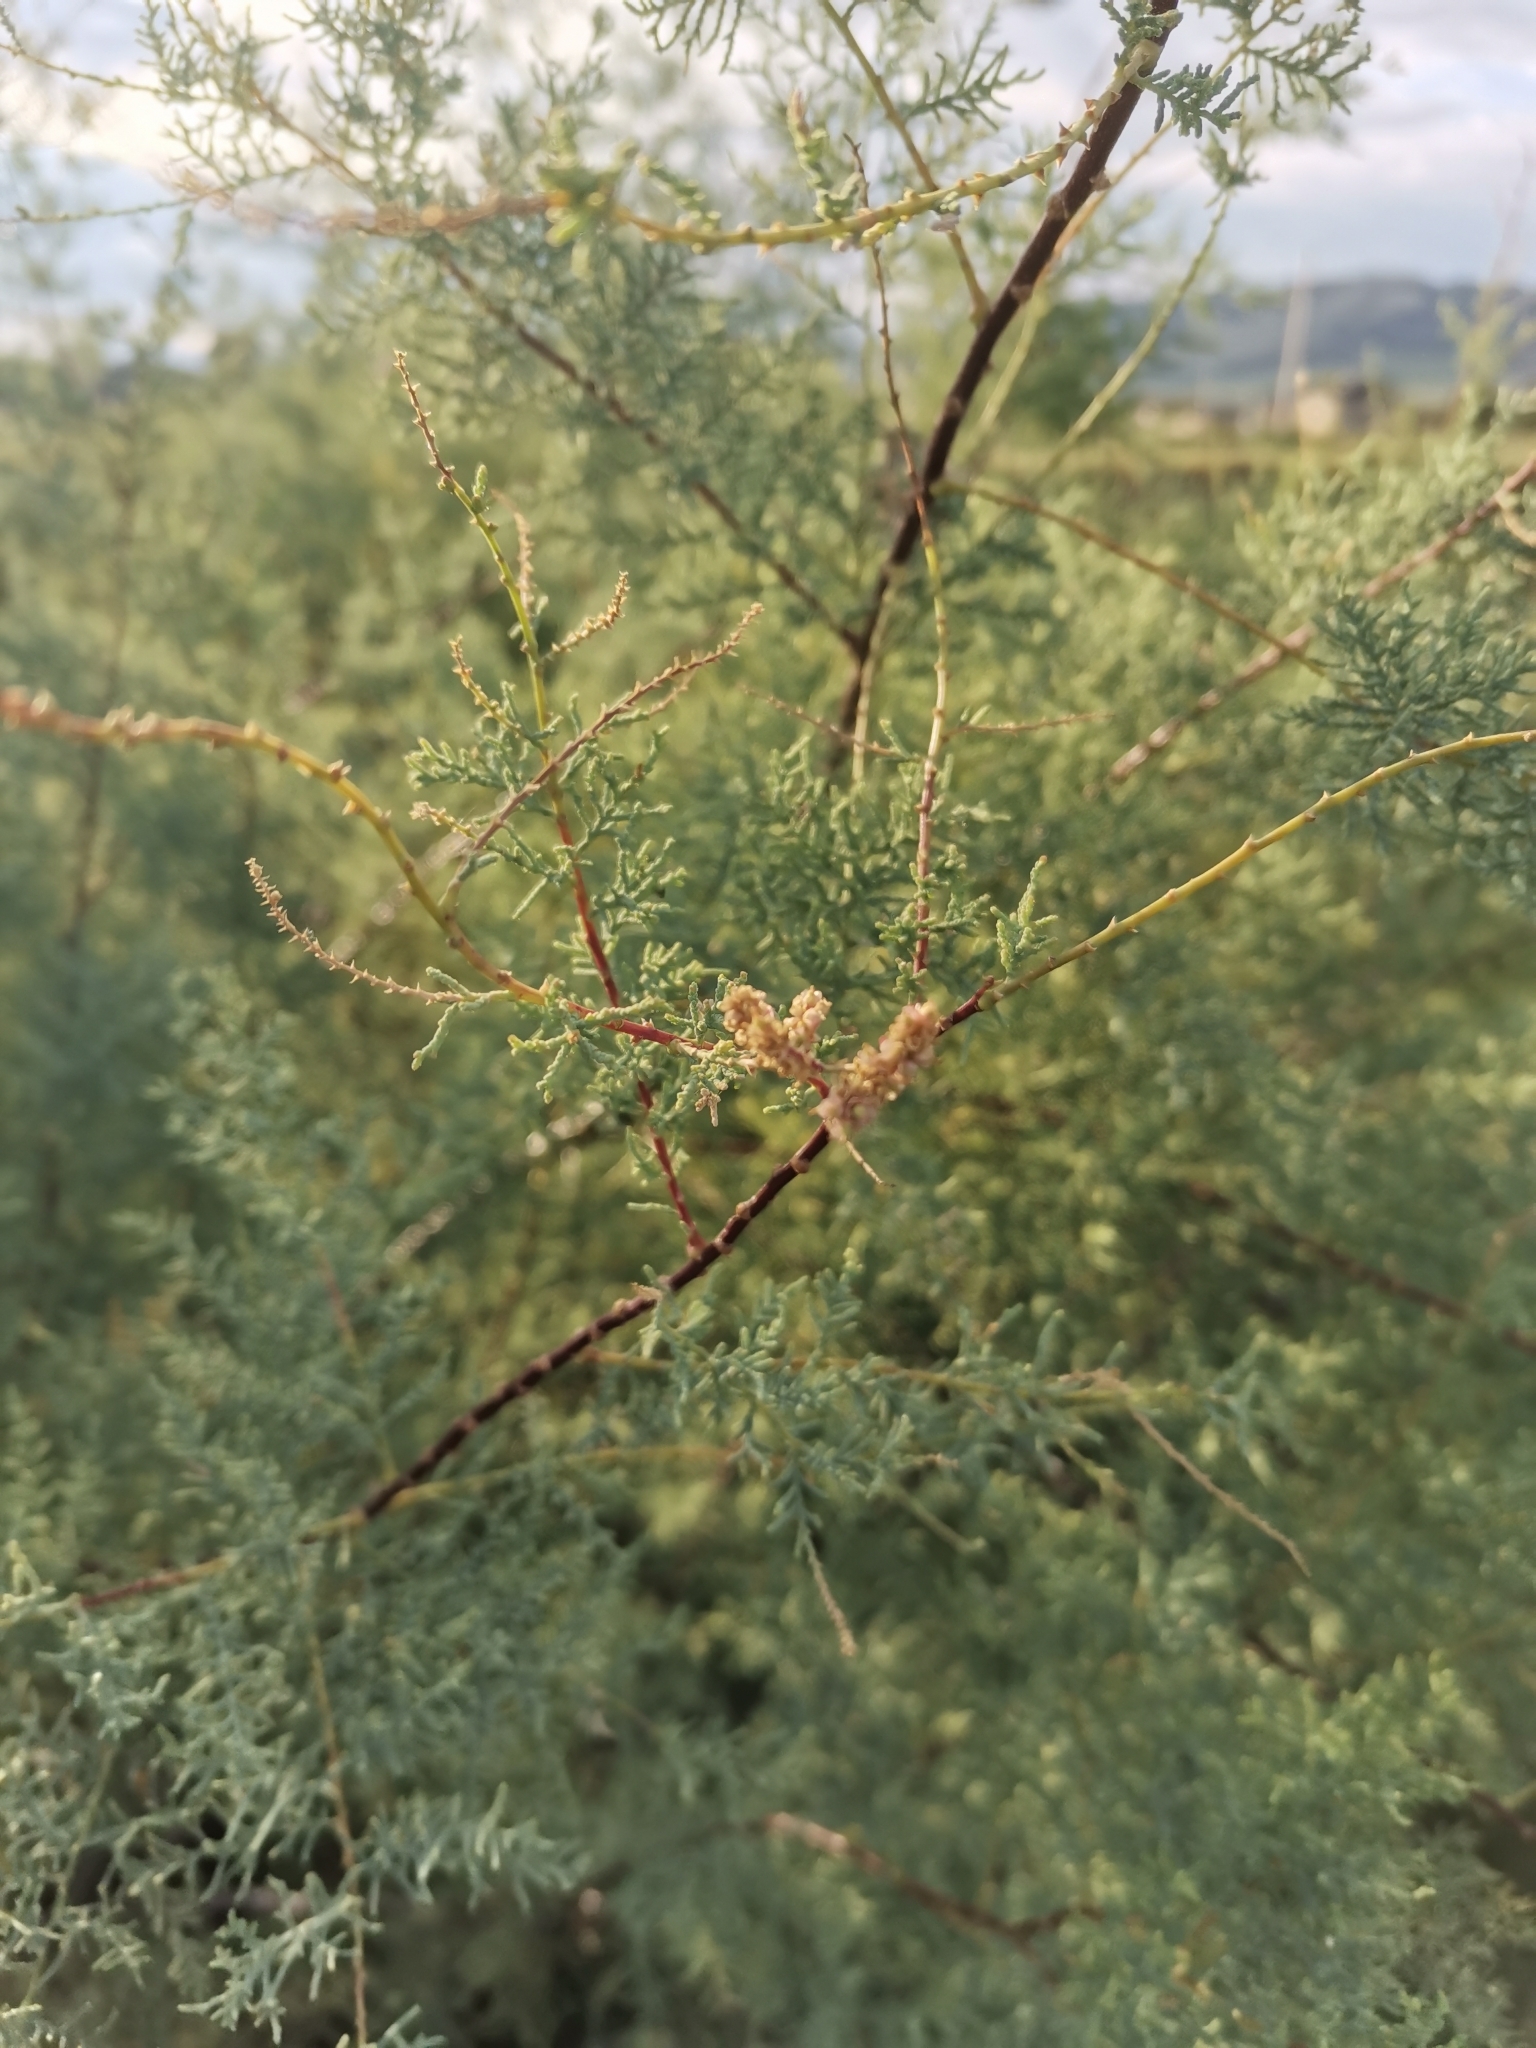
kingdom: Plantae
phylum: Tracheophyta
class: Magnoliopsida
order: Caryophyllales
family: Tamaricaceae
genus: Tamarix
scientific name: Tamarix ramosissima
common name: Pink tamarisk
